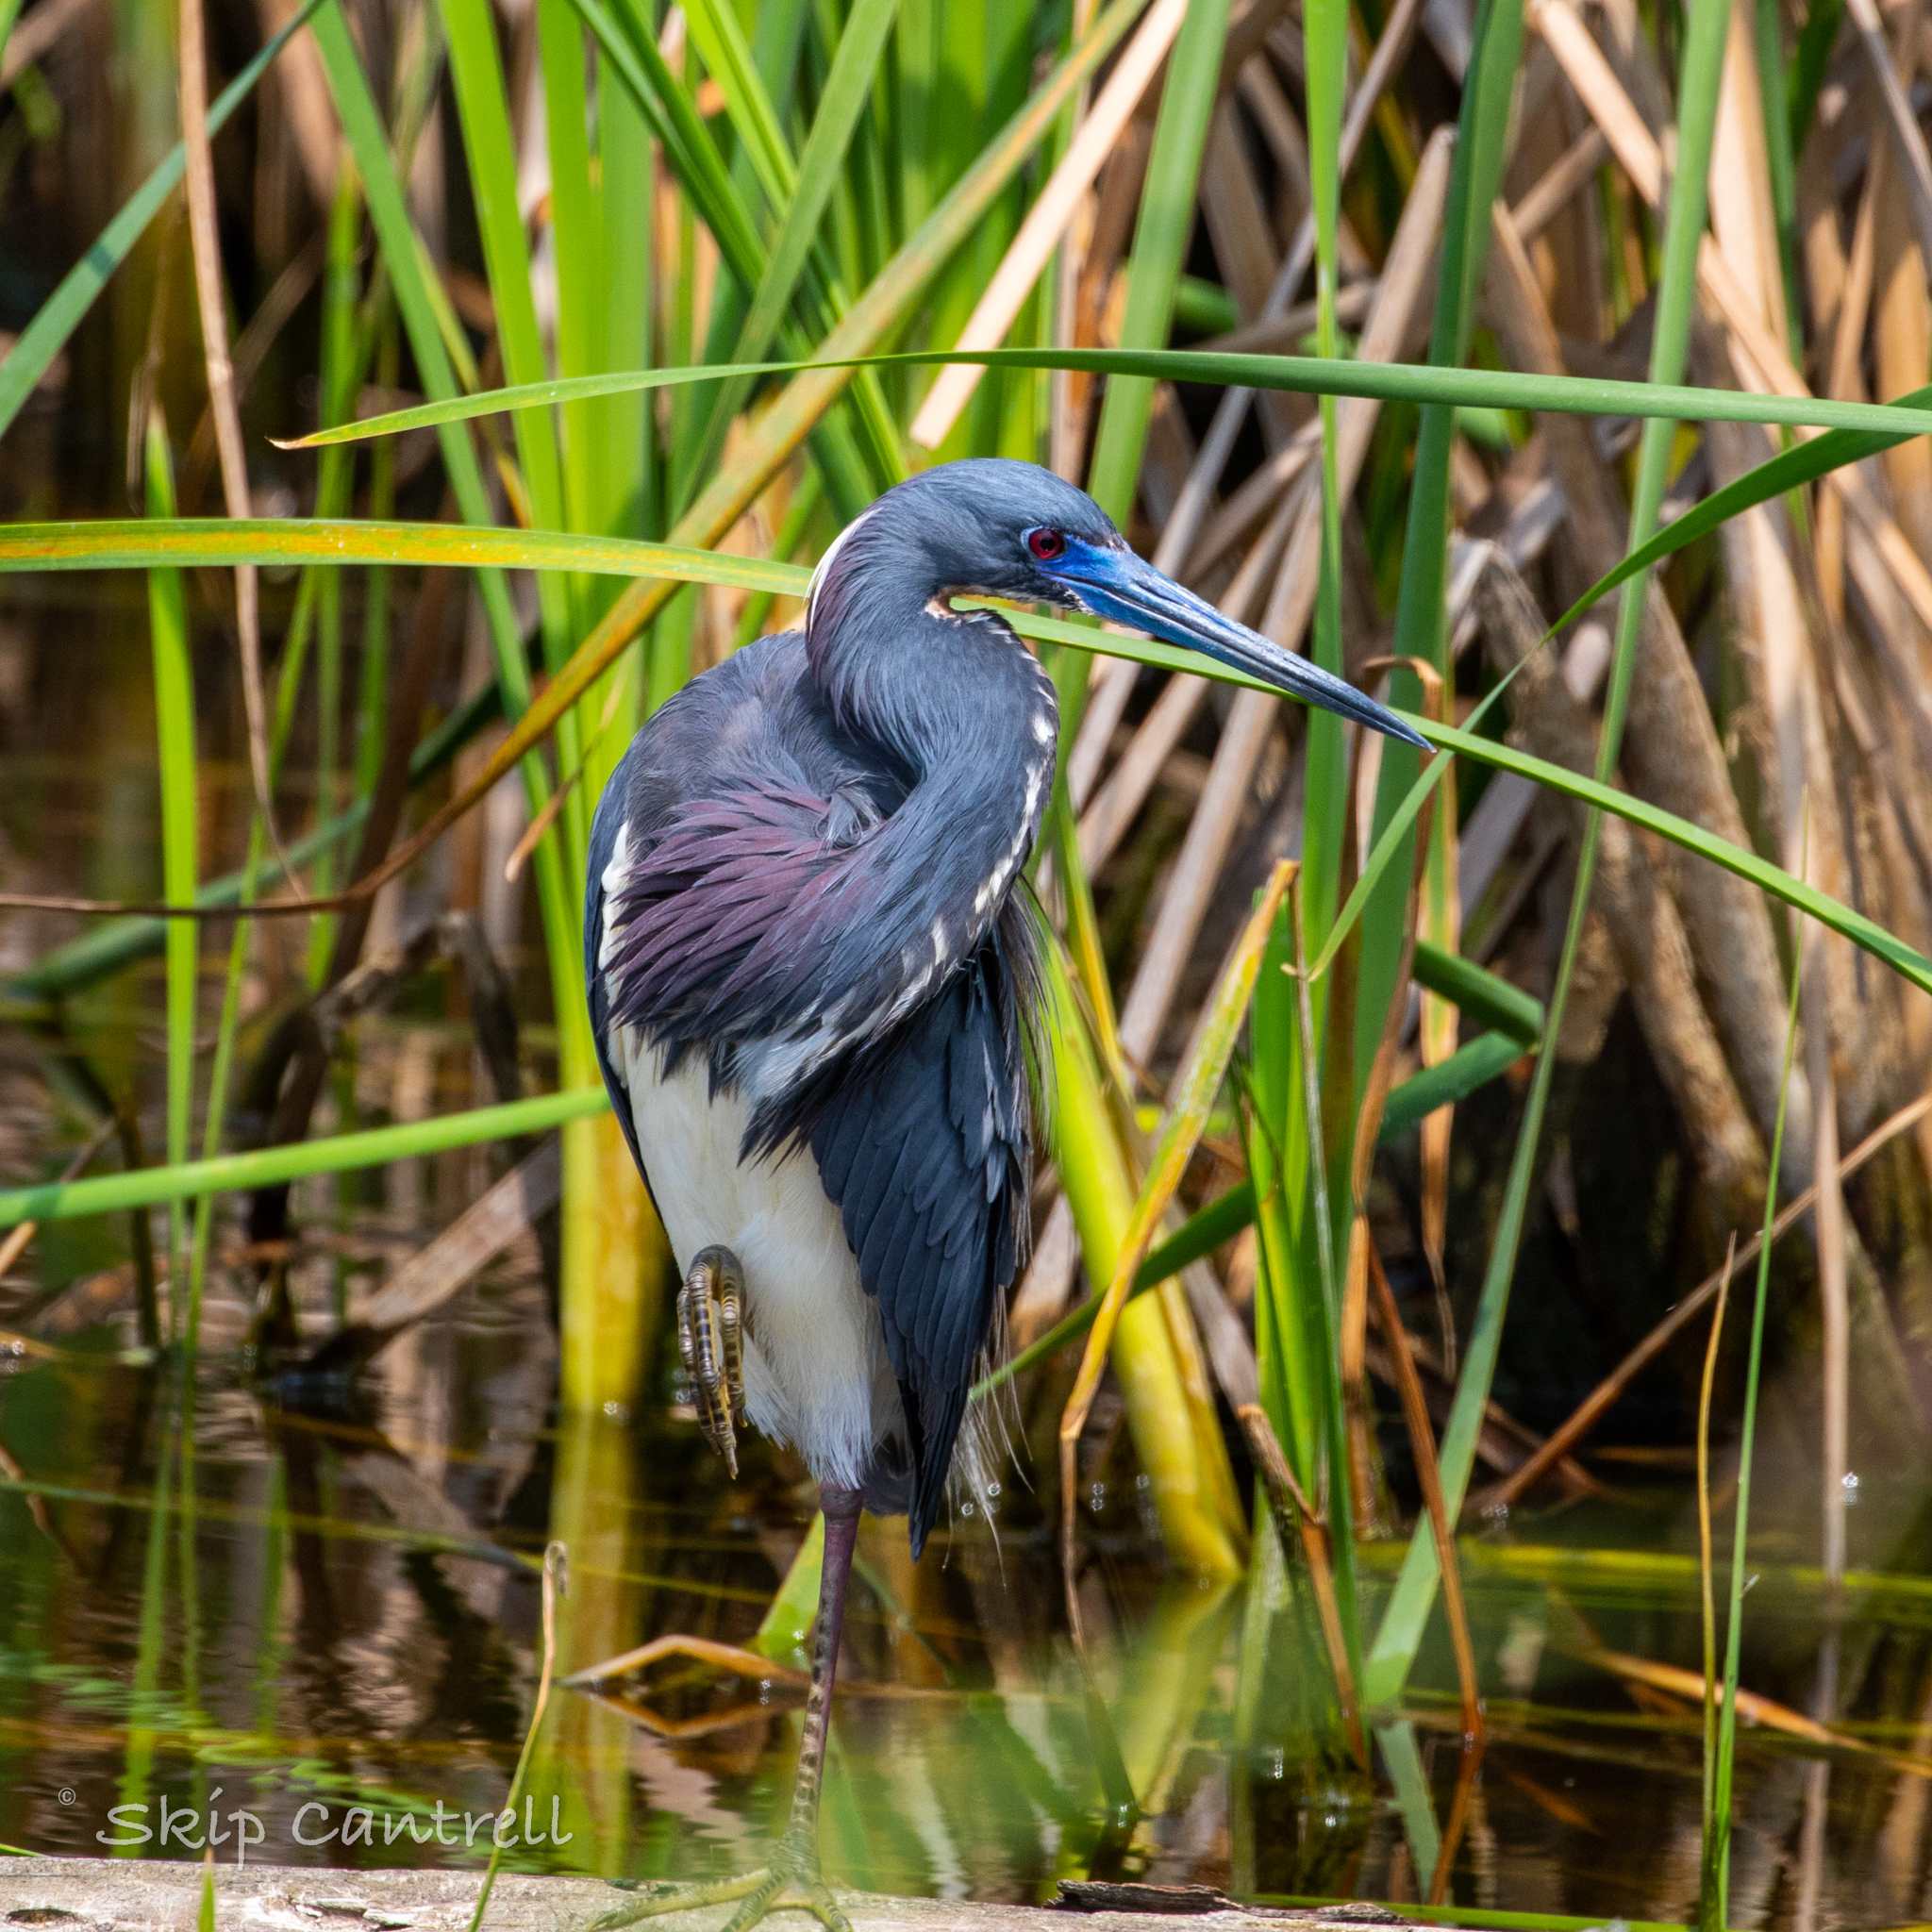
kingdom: Animalia
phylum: Chordata
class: Aves
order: Pelecaniformes
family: Ardeidae
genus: Egretta
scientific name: Egretta tricolor
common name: Tricolored heron
